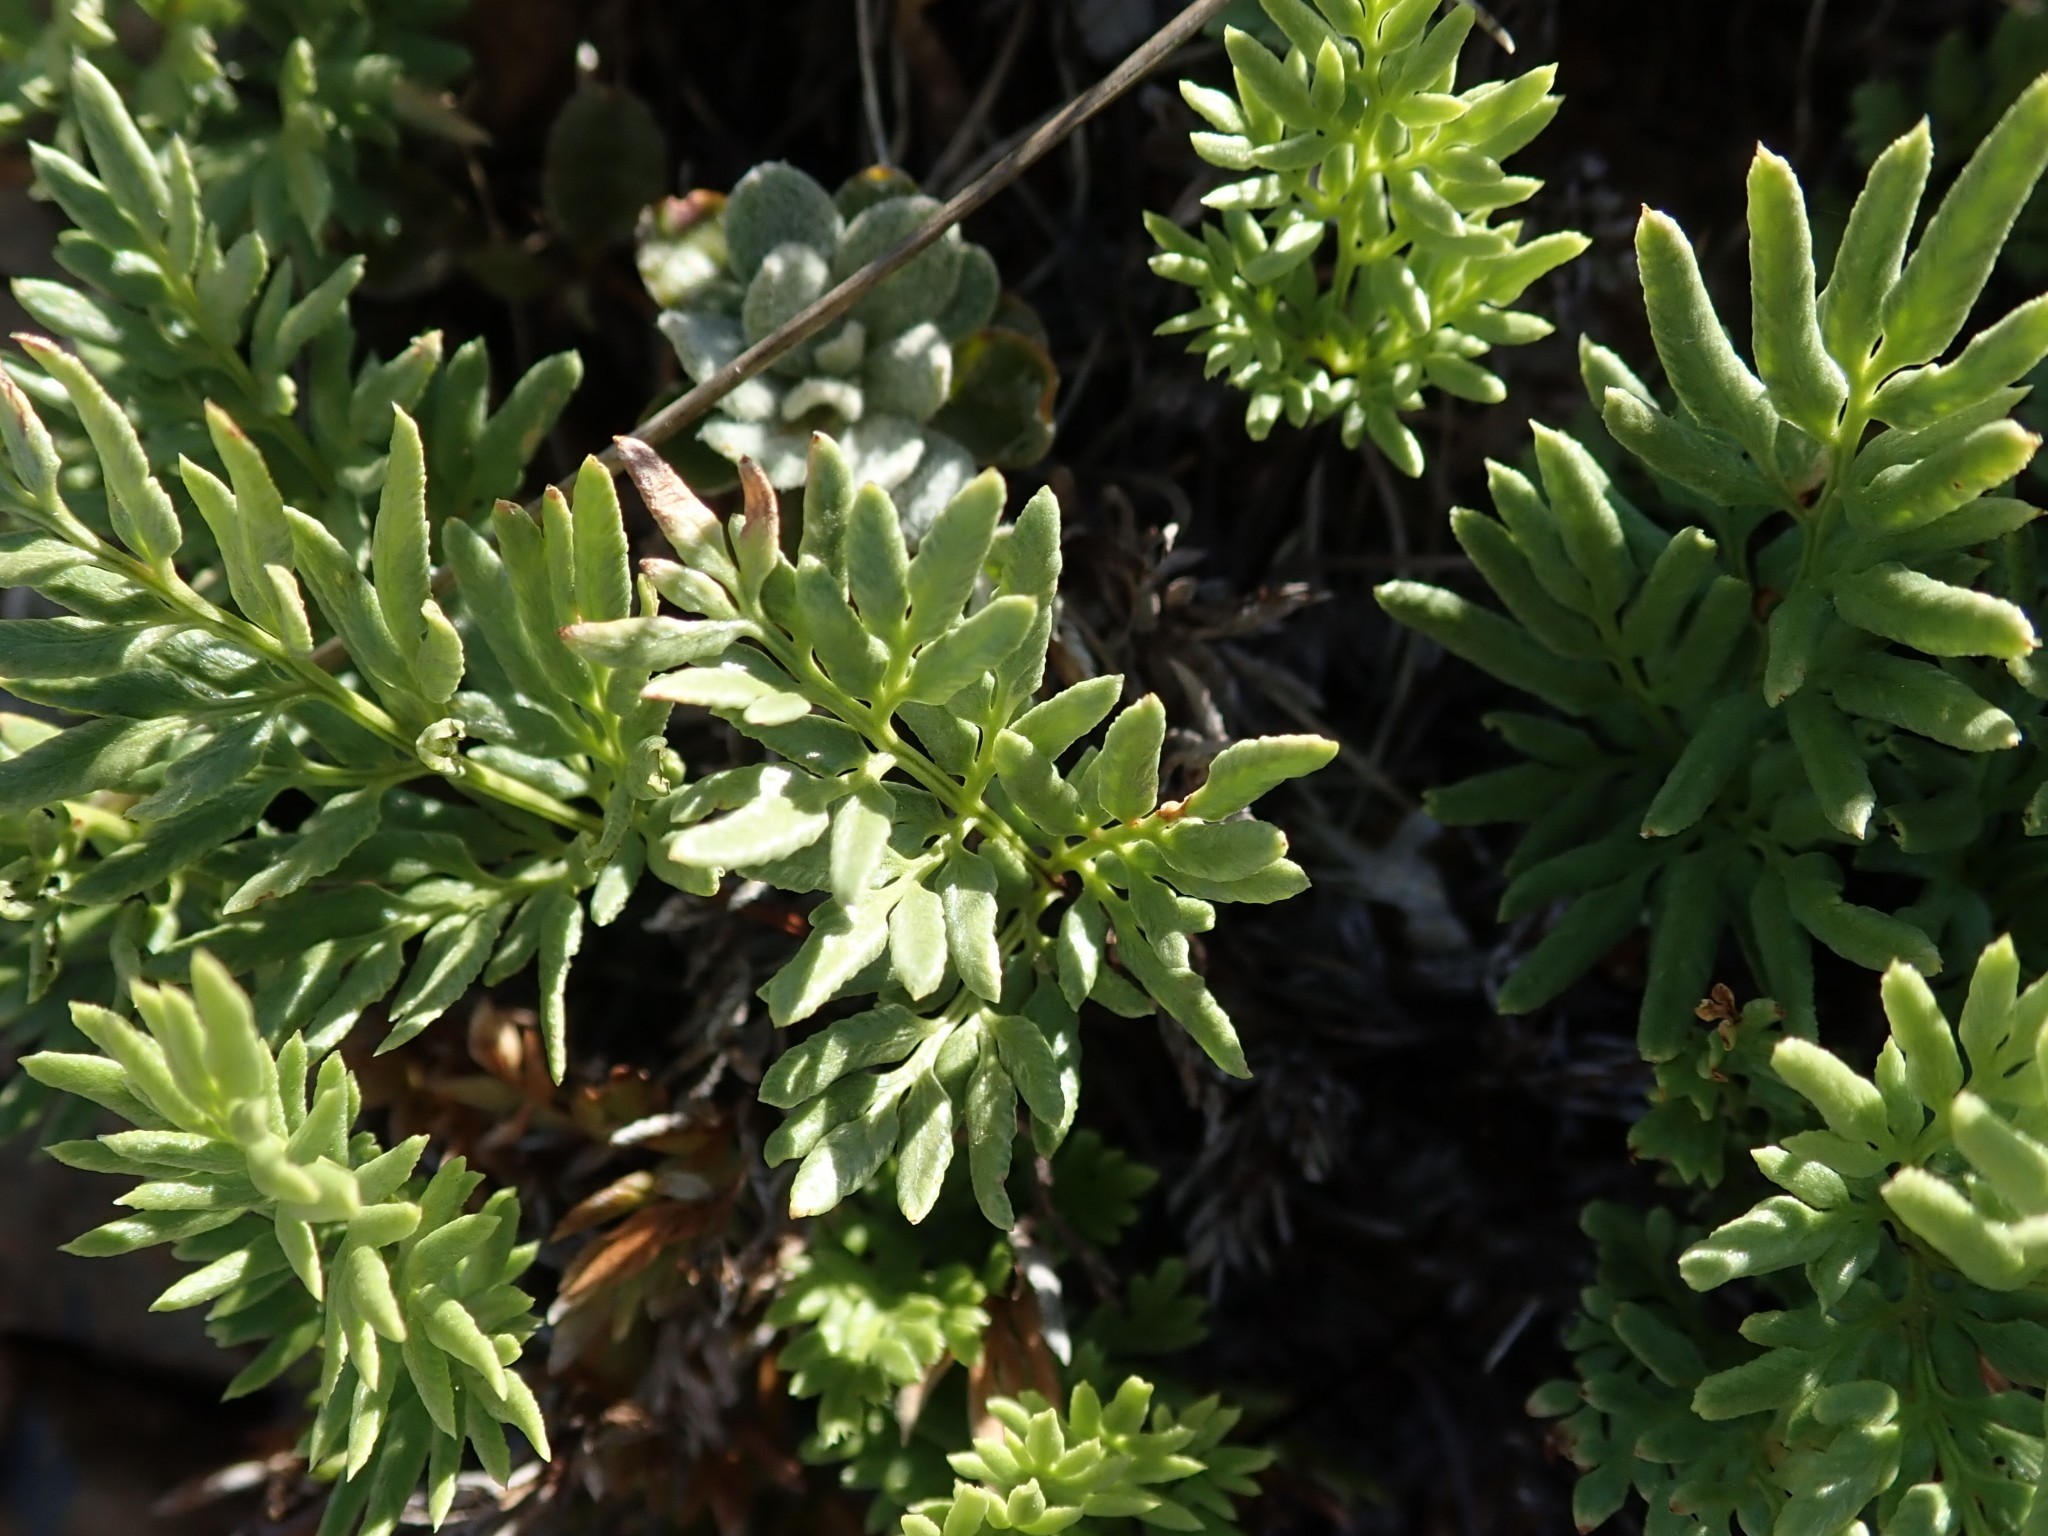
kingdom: Plantae
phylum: Tracheophyta
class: Polypodiopsida
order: Polypodiales
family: Pteridaceae
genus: Aspidotis
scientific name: Aspidotis densa
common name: Indian's dream
